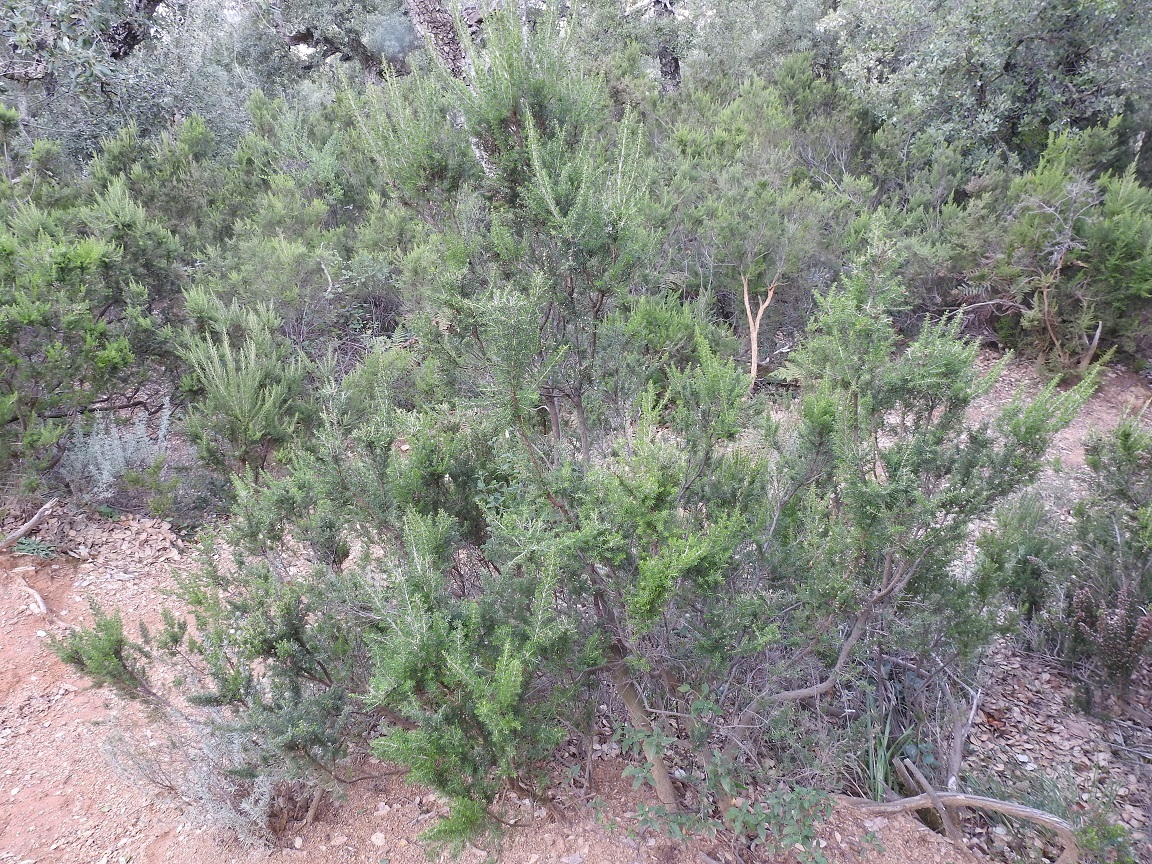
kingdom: Plantae
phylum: Tracheophyta
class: Magnoliopsida
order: Ericales
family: Ericaceae
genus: Erica
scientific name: Erica arborea
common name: Tree heath
